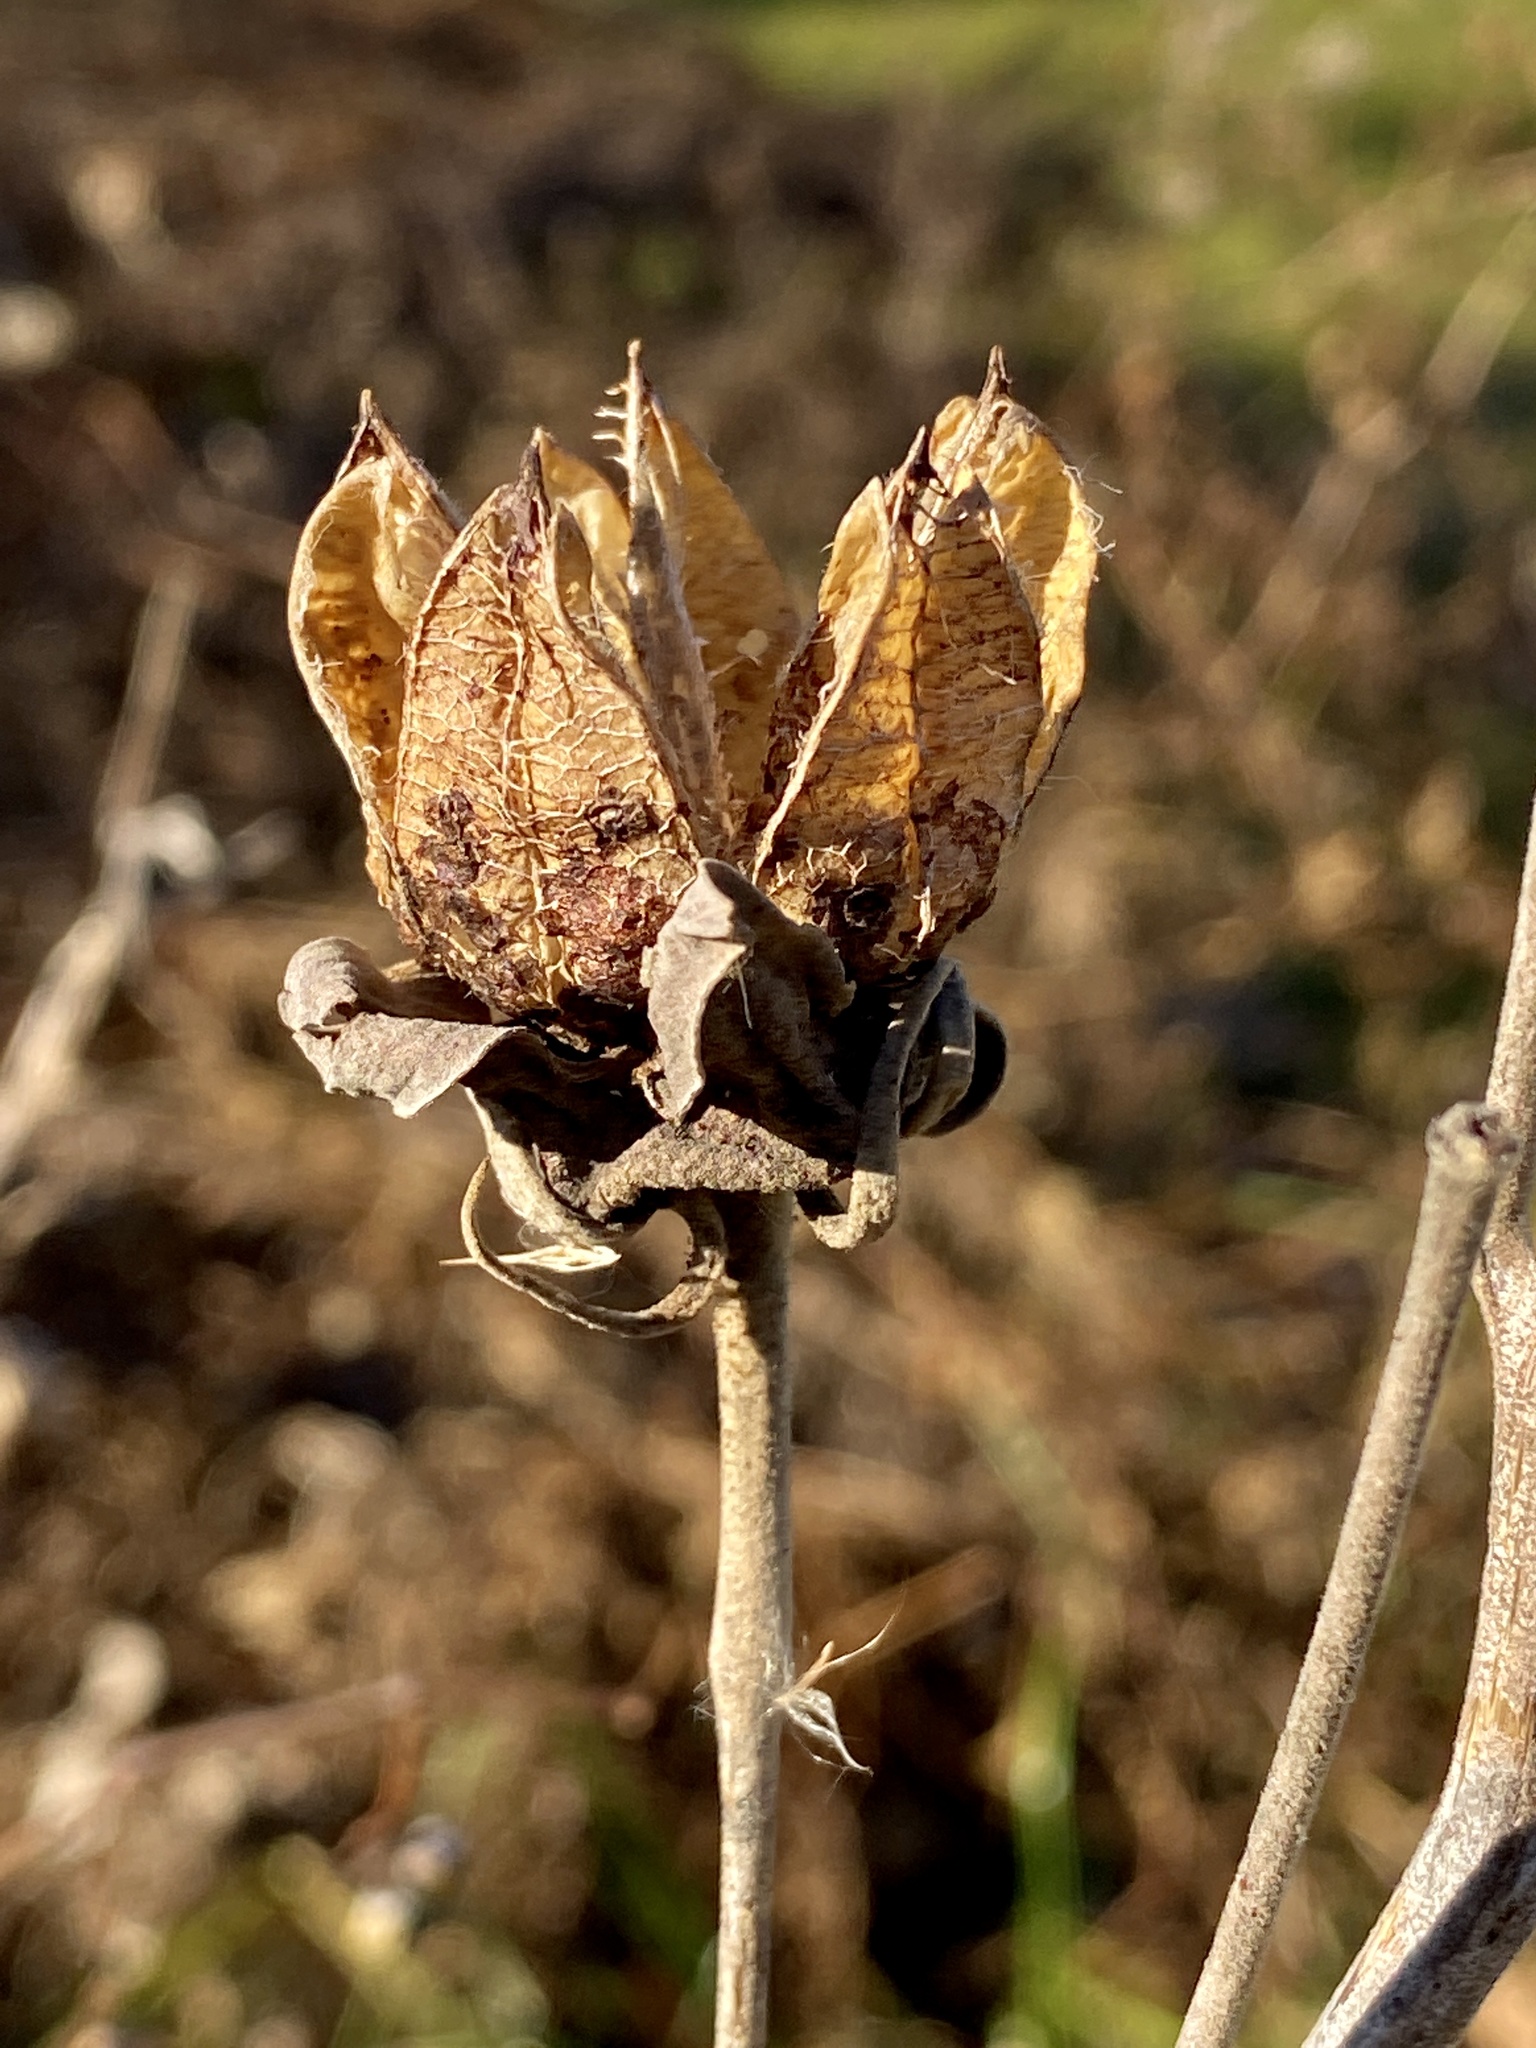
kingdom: Plantae
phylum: Tracheophyta
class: Magnoliopsida
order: Malvales
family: Malvaceae
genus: Hibiscus
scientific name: Hibiscus moscheutos
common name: Common rose-mallow
